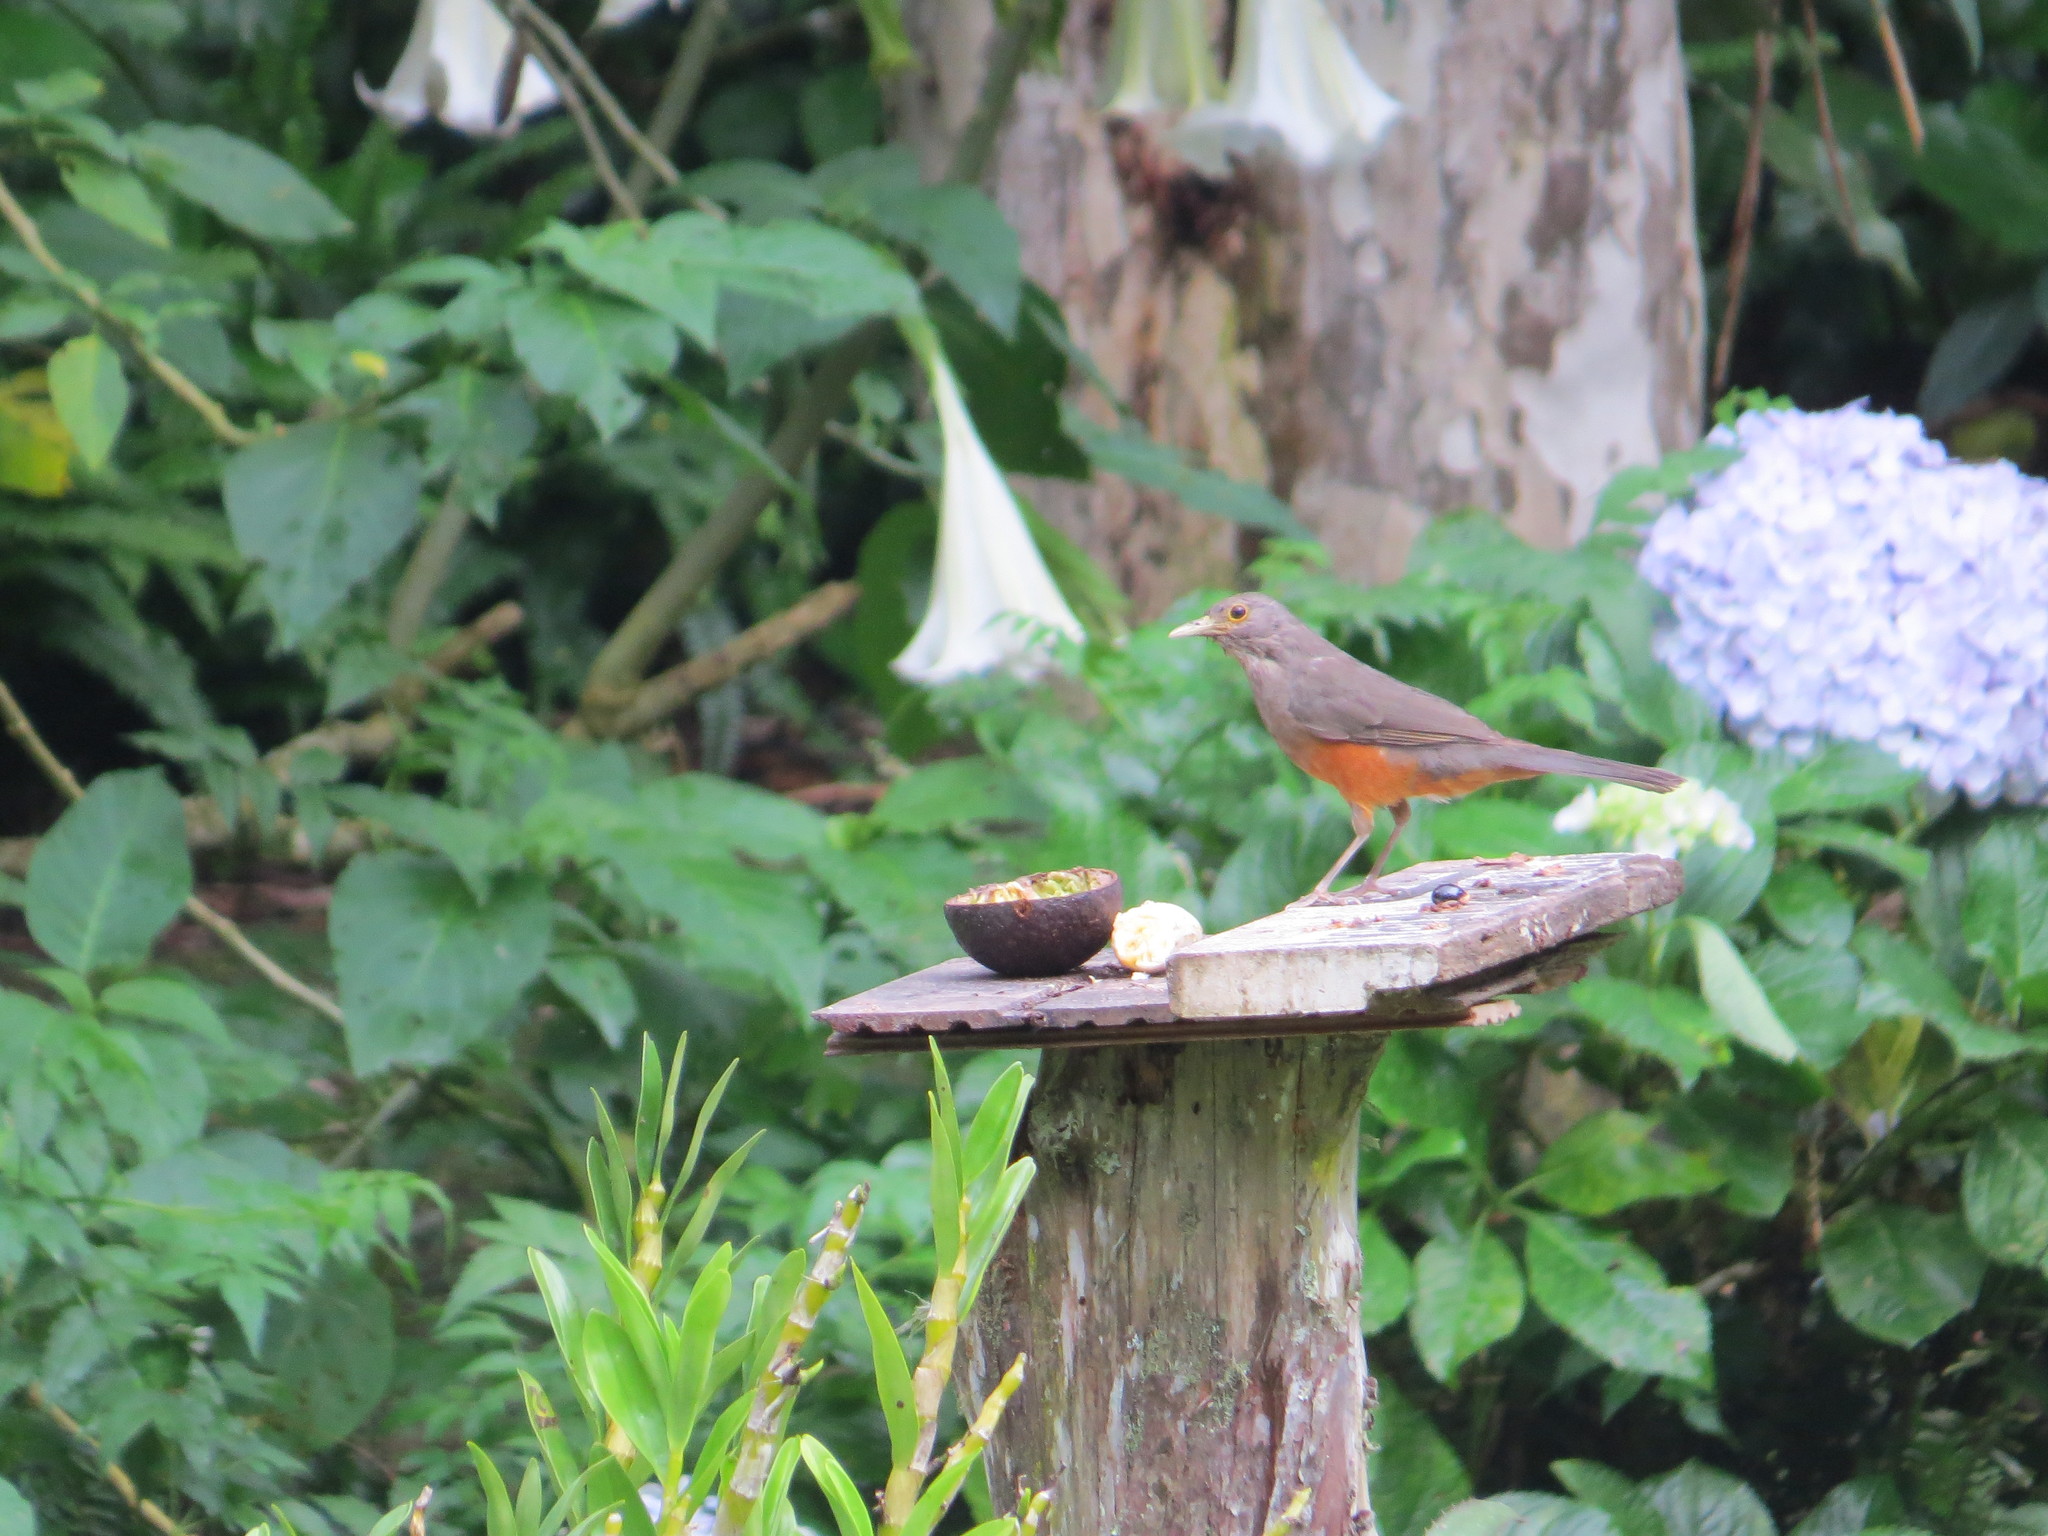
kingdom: Animalia
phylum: Chordata
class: Aves
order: Passeriformes
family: Turdidae
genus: Turdus
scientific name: Turdus rufiventris
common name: Rufous-bellied thrush
